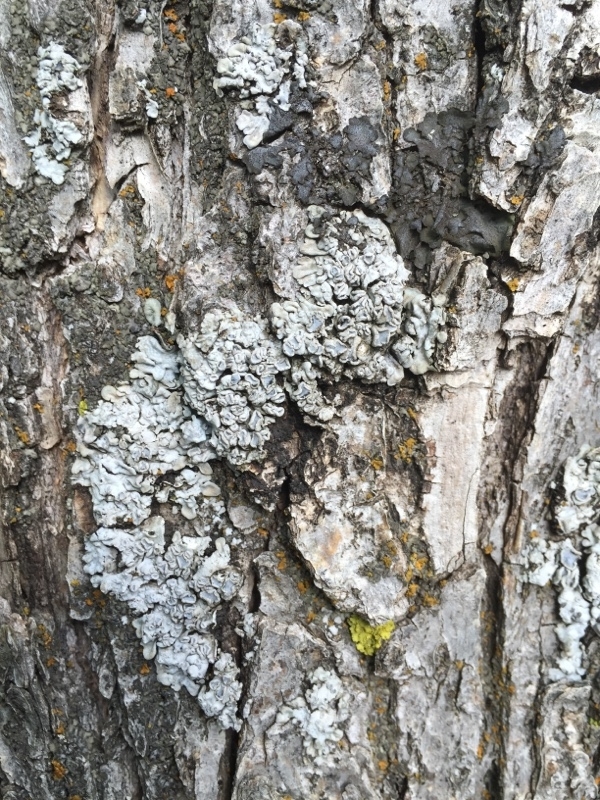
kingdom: Fungi
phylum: Ascomycota
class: Lecanoromycetes
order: Caliciales
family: Physciaceae
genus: Physconia
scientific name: Physconia distorta
